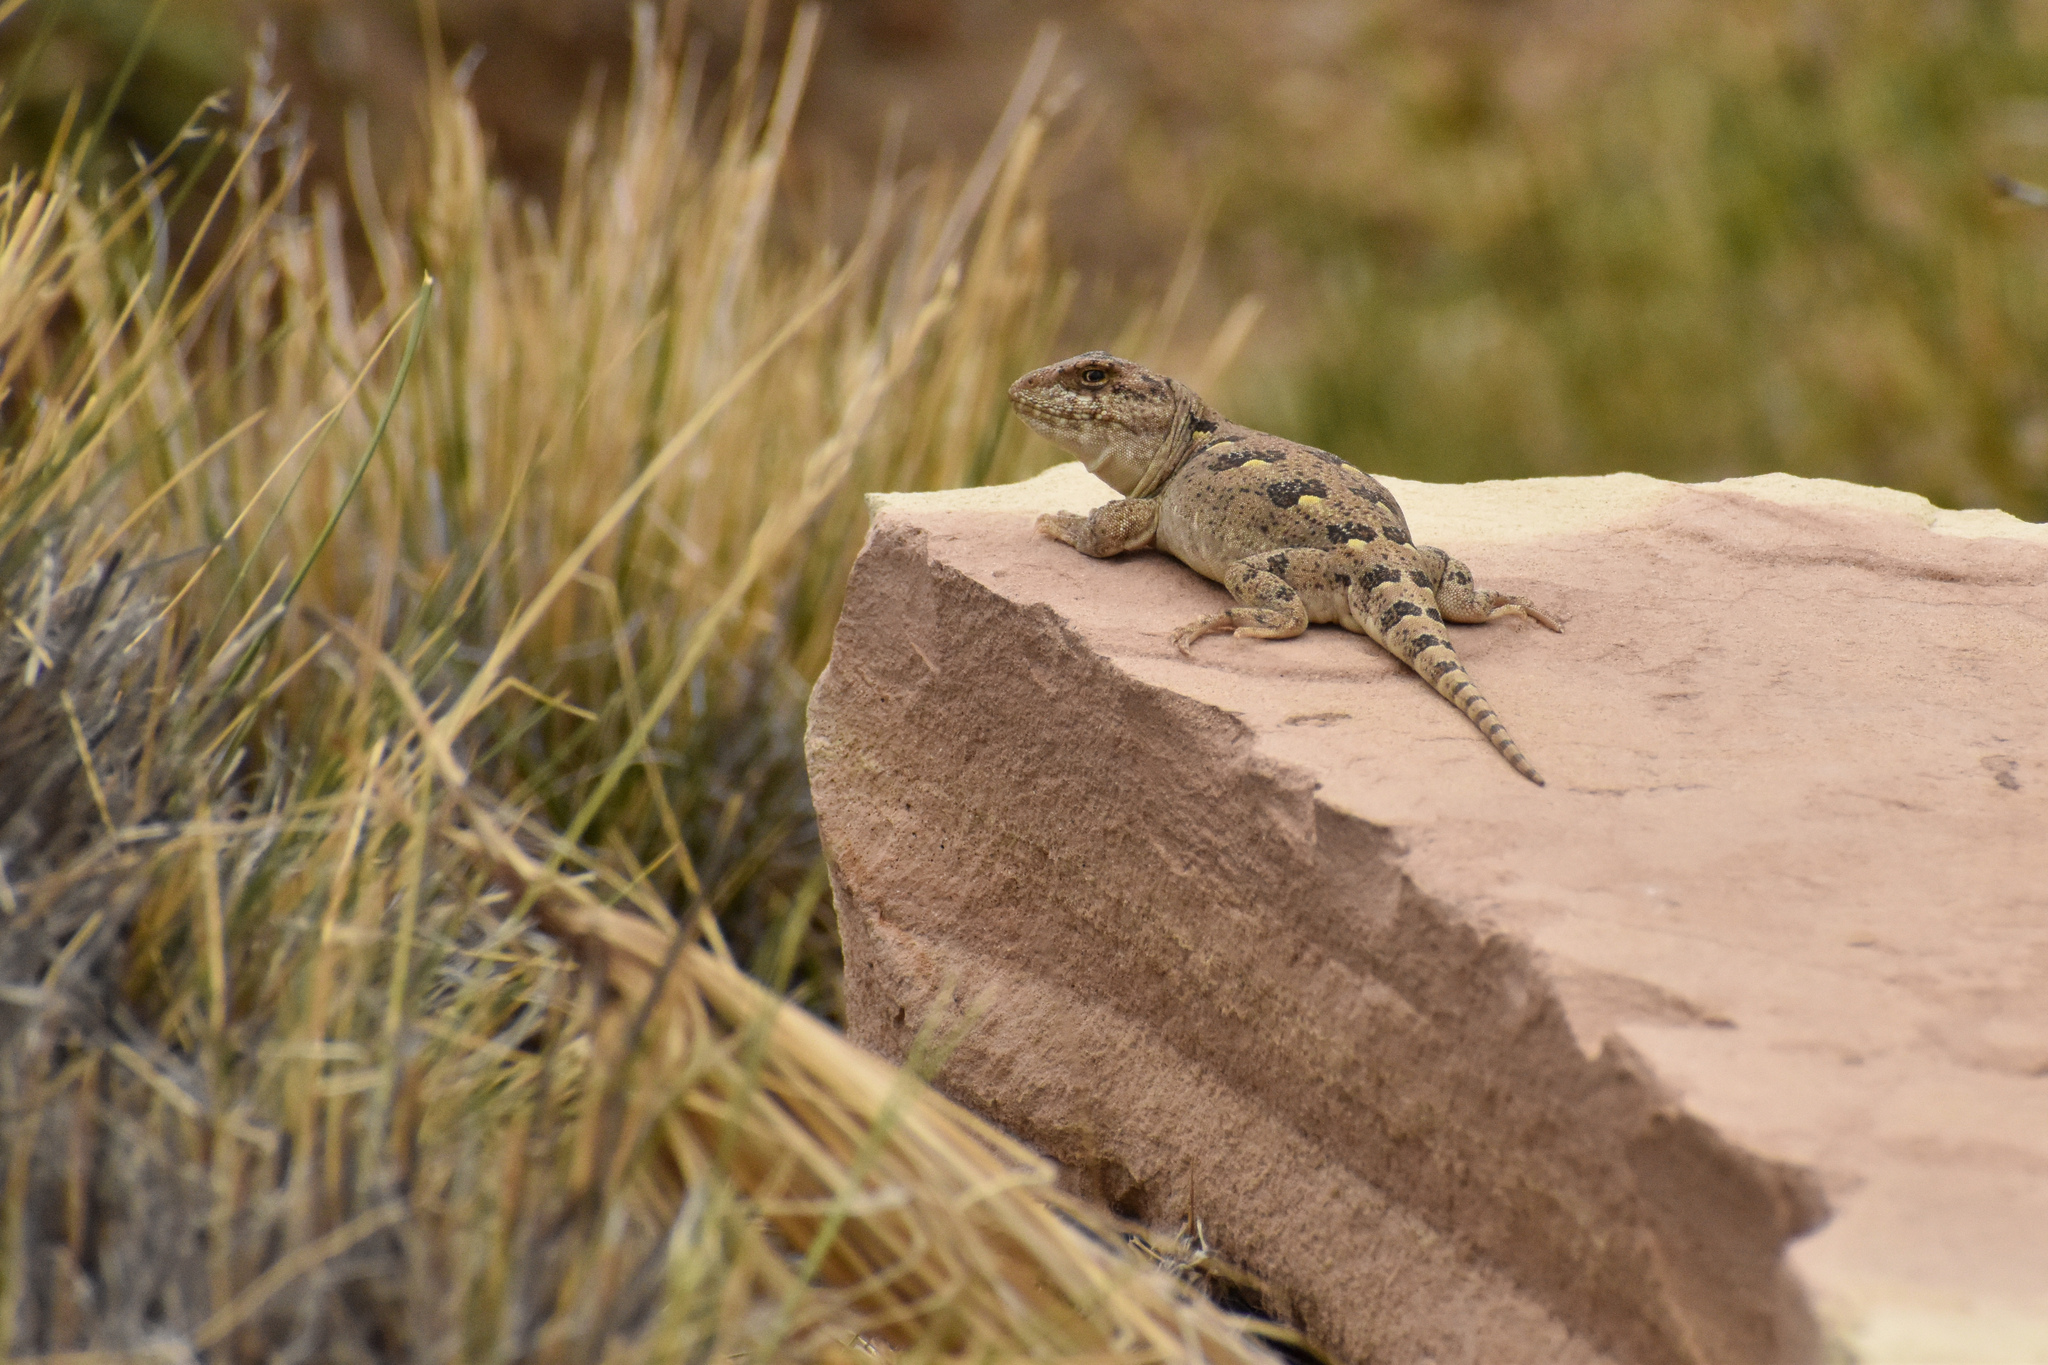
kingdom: Animalia
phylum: Chordata
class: Squamata
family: Leiosauridae
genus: Diplolaemus
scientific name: Diplolaemus bibronii
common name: Bibron's iguana
